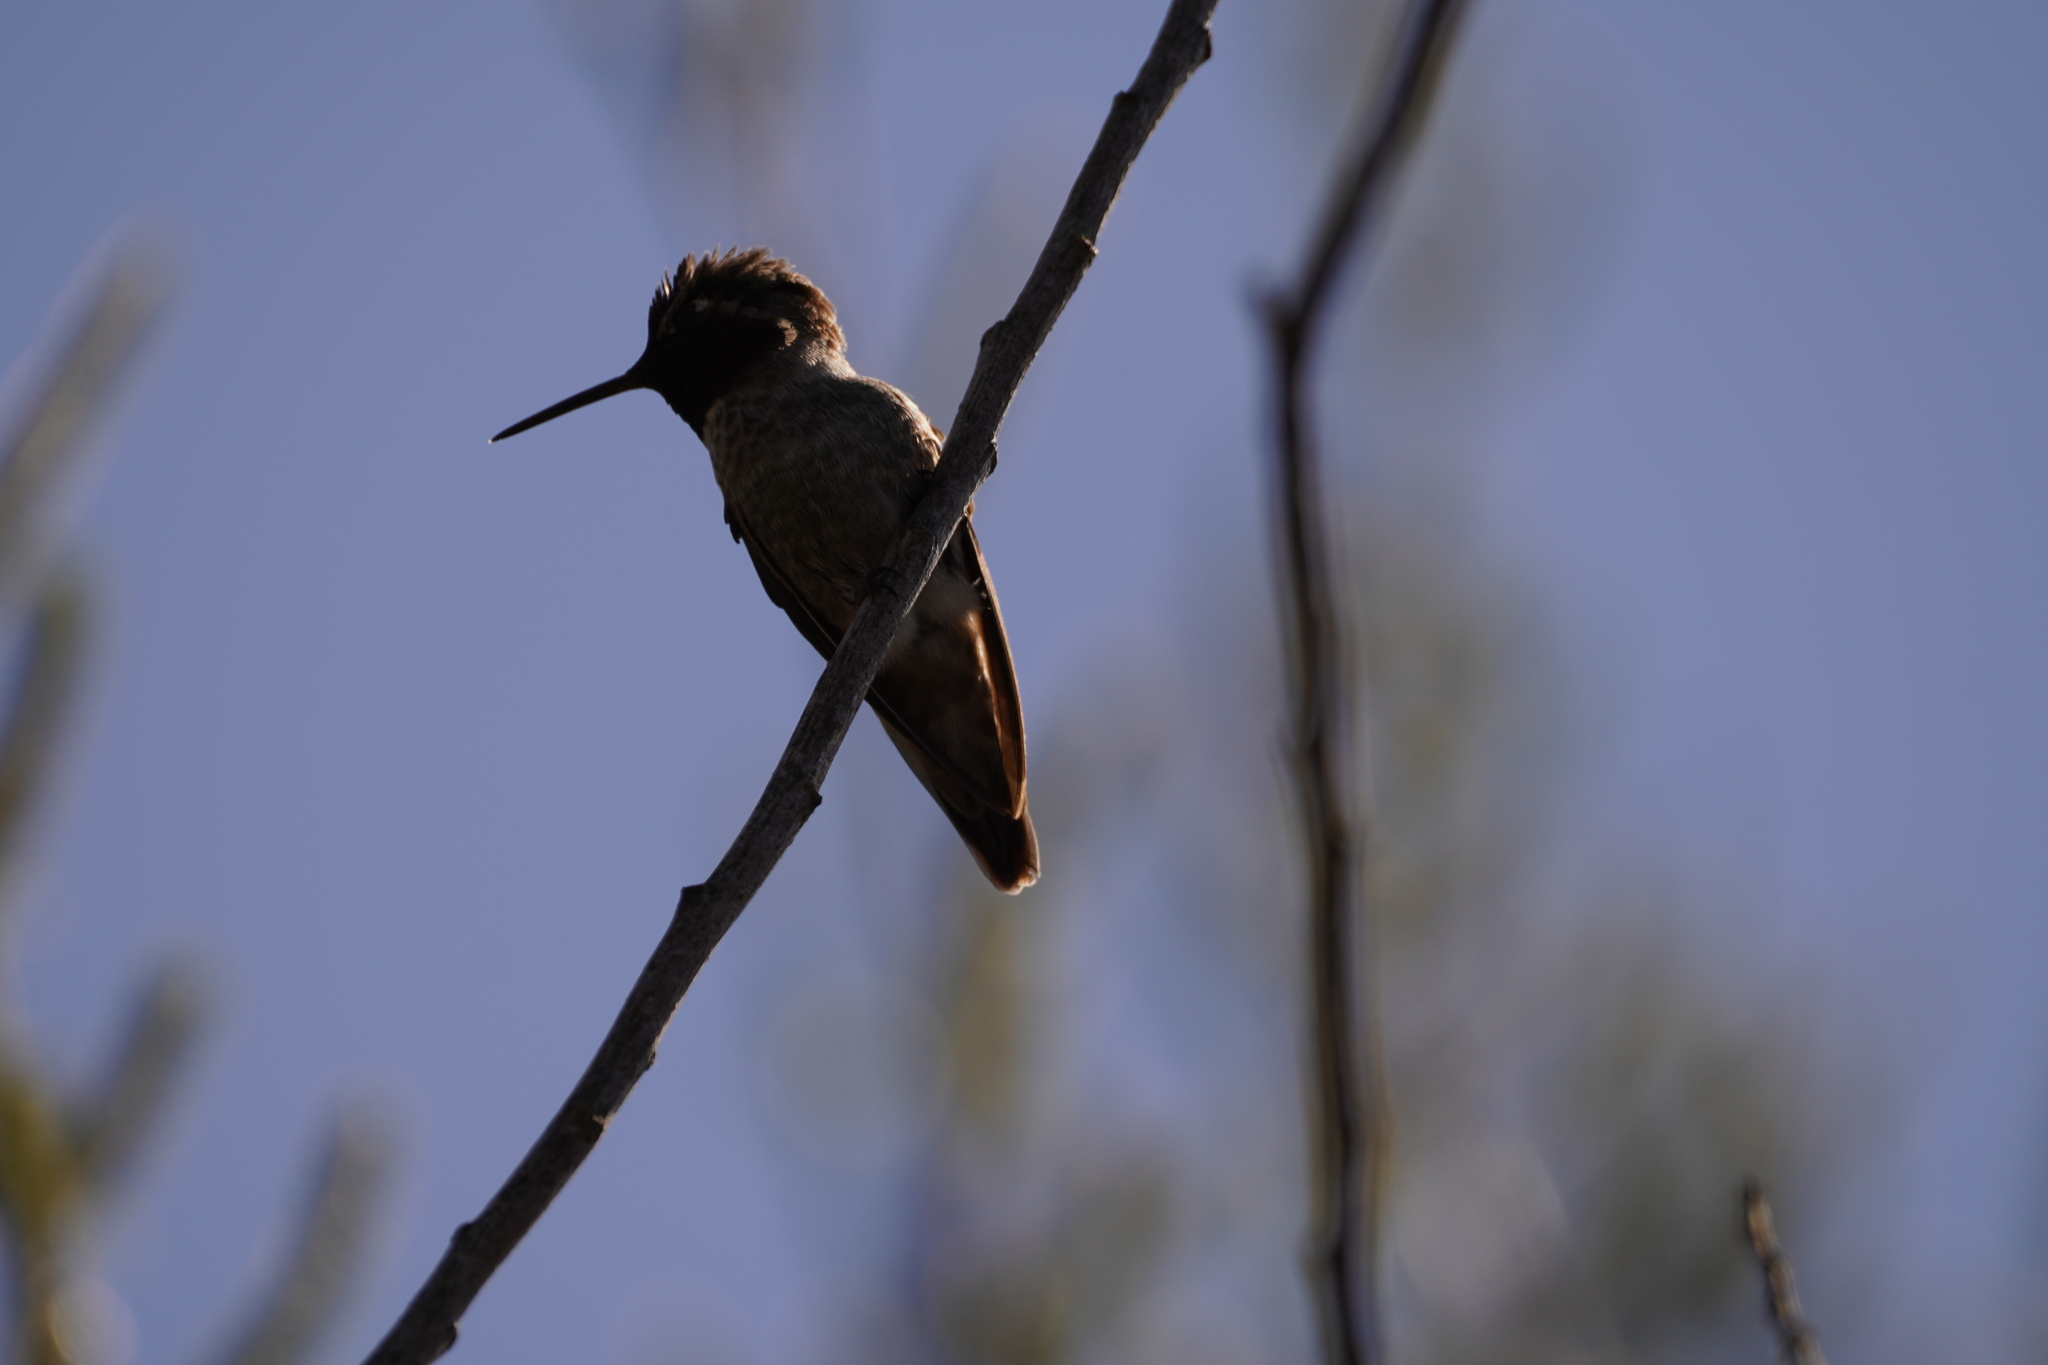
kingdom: Animalia
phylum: Chordata
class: Aves
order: Apodiformes
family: Trochilidae
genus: Calypte
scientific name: Calypte anna
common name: Anna's hummingbird
